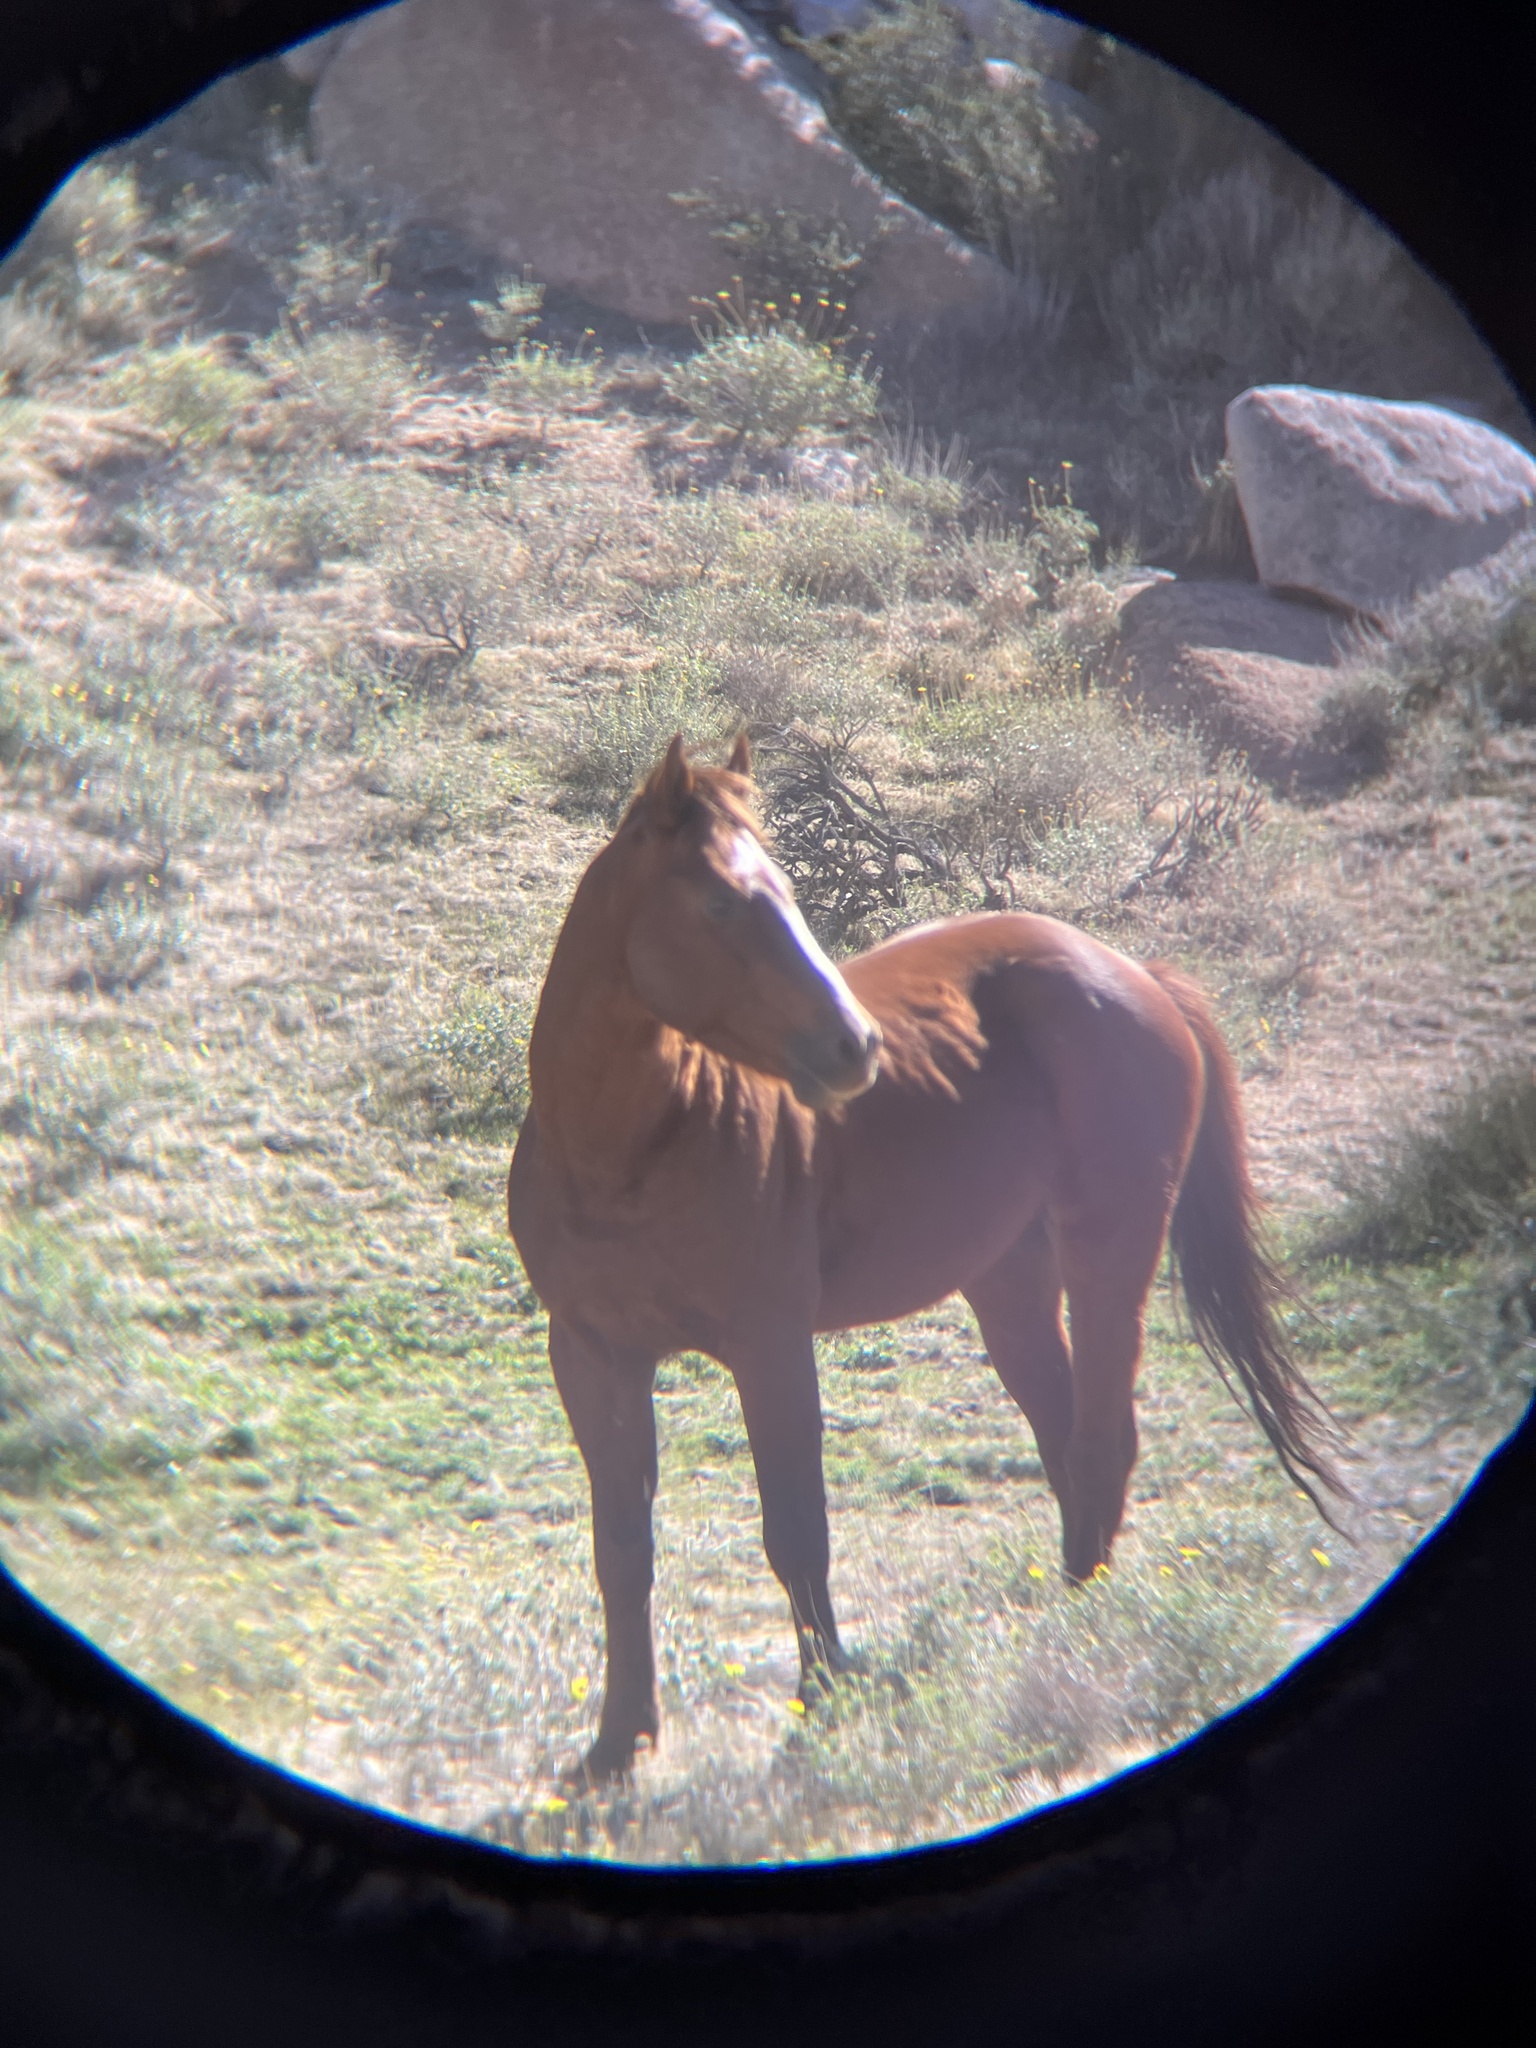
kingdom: Animalia
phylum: Chordata
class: Mammalia
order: Perissodactyla
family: Equidae
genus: Equus
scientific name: Equus caballus
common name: Horse
